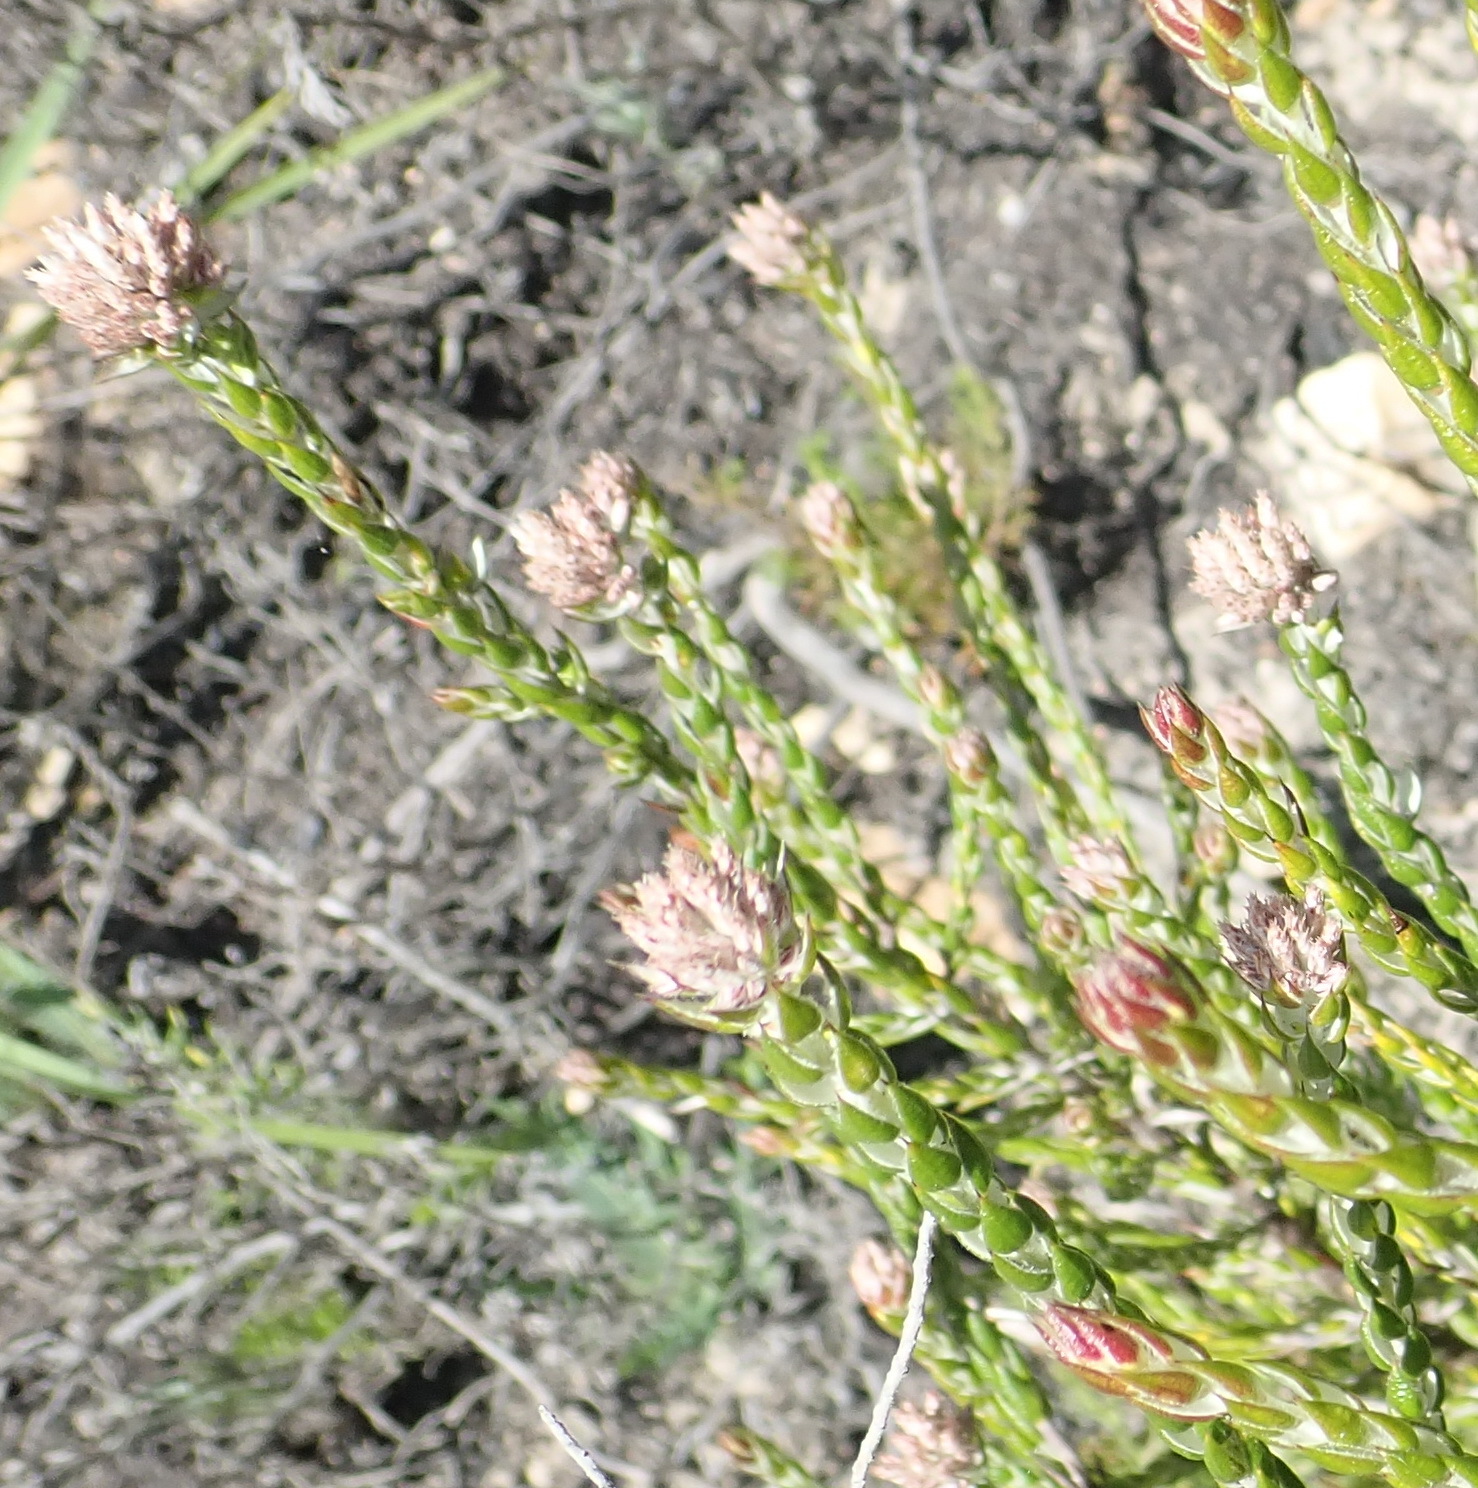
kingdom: Plantae
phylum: Tracheophyta
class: Magnoliopsida
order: Asterales
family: Asteraceae
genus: Metalasia
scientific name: Metalasia pulcherrima
